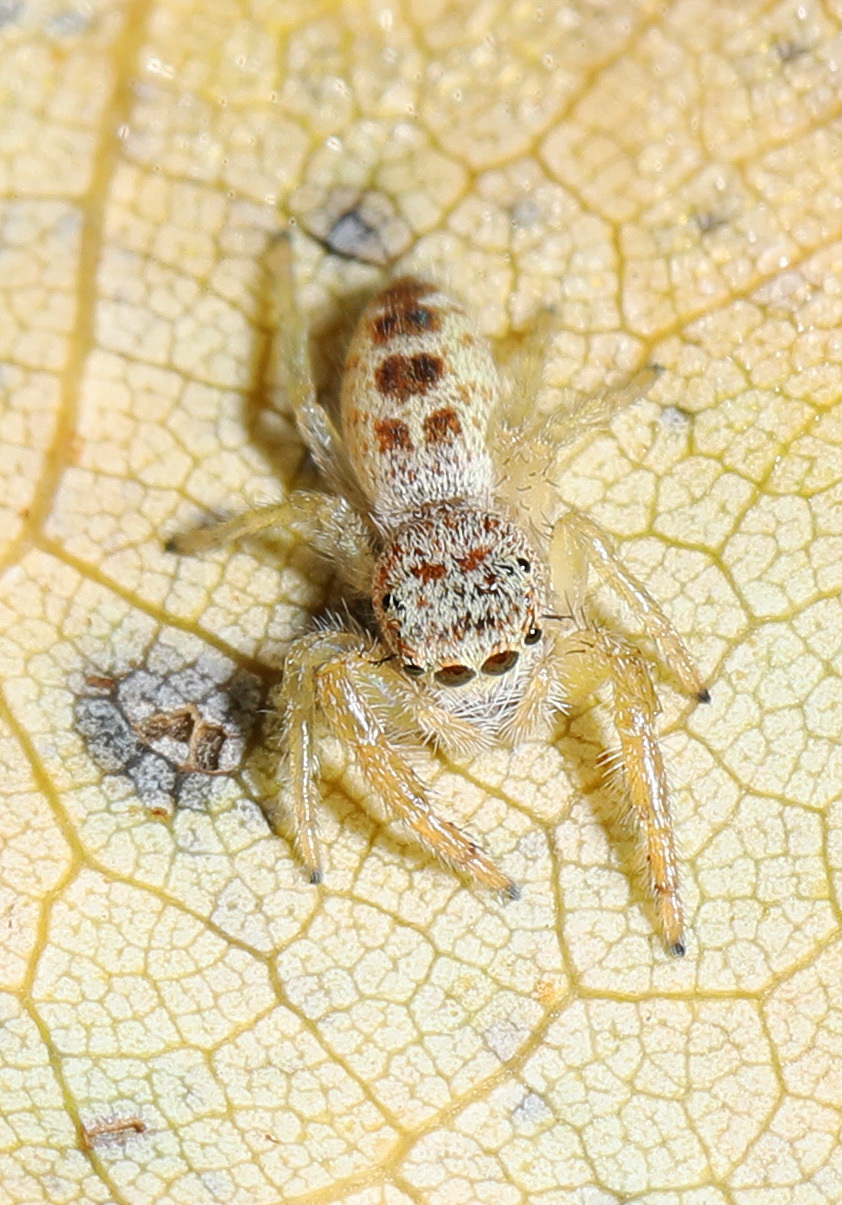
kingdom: Animalia
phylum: Arthropoda
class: Arachnida
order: Araneae
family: Salticidae
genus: Hentzia
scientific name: Hentzia mitrata
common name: White-jawed jumping spider
